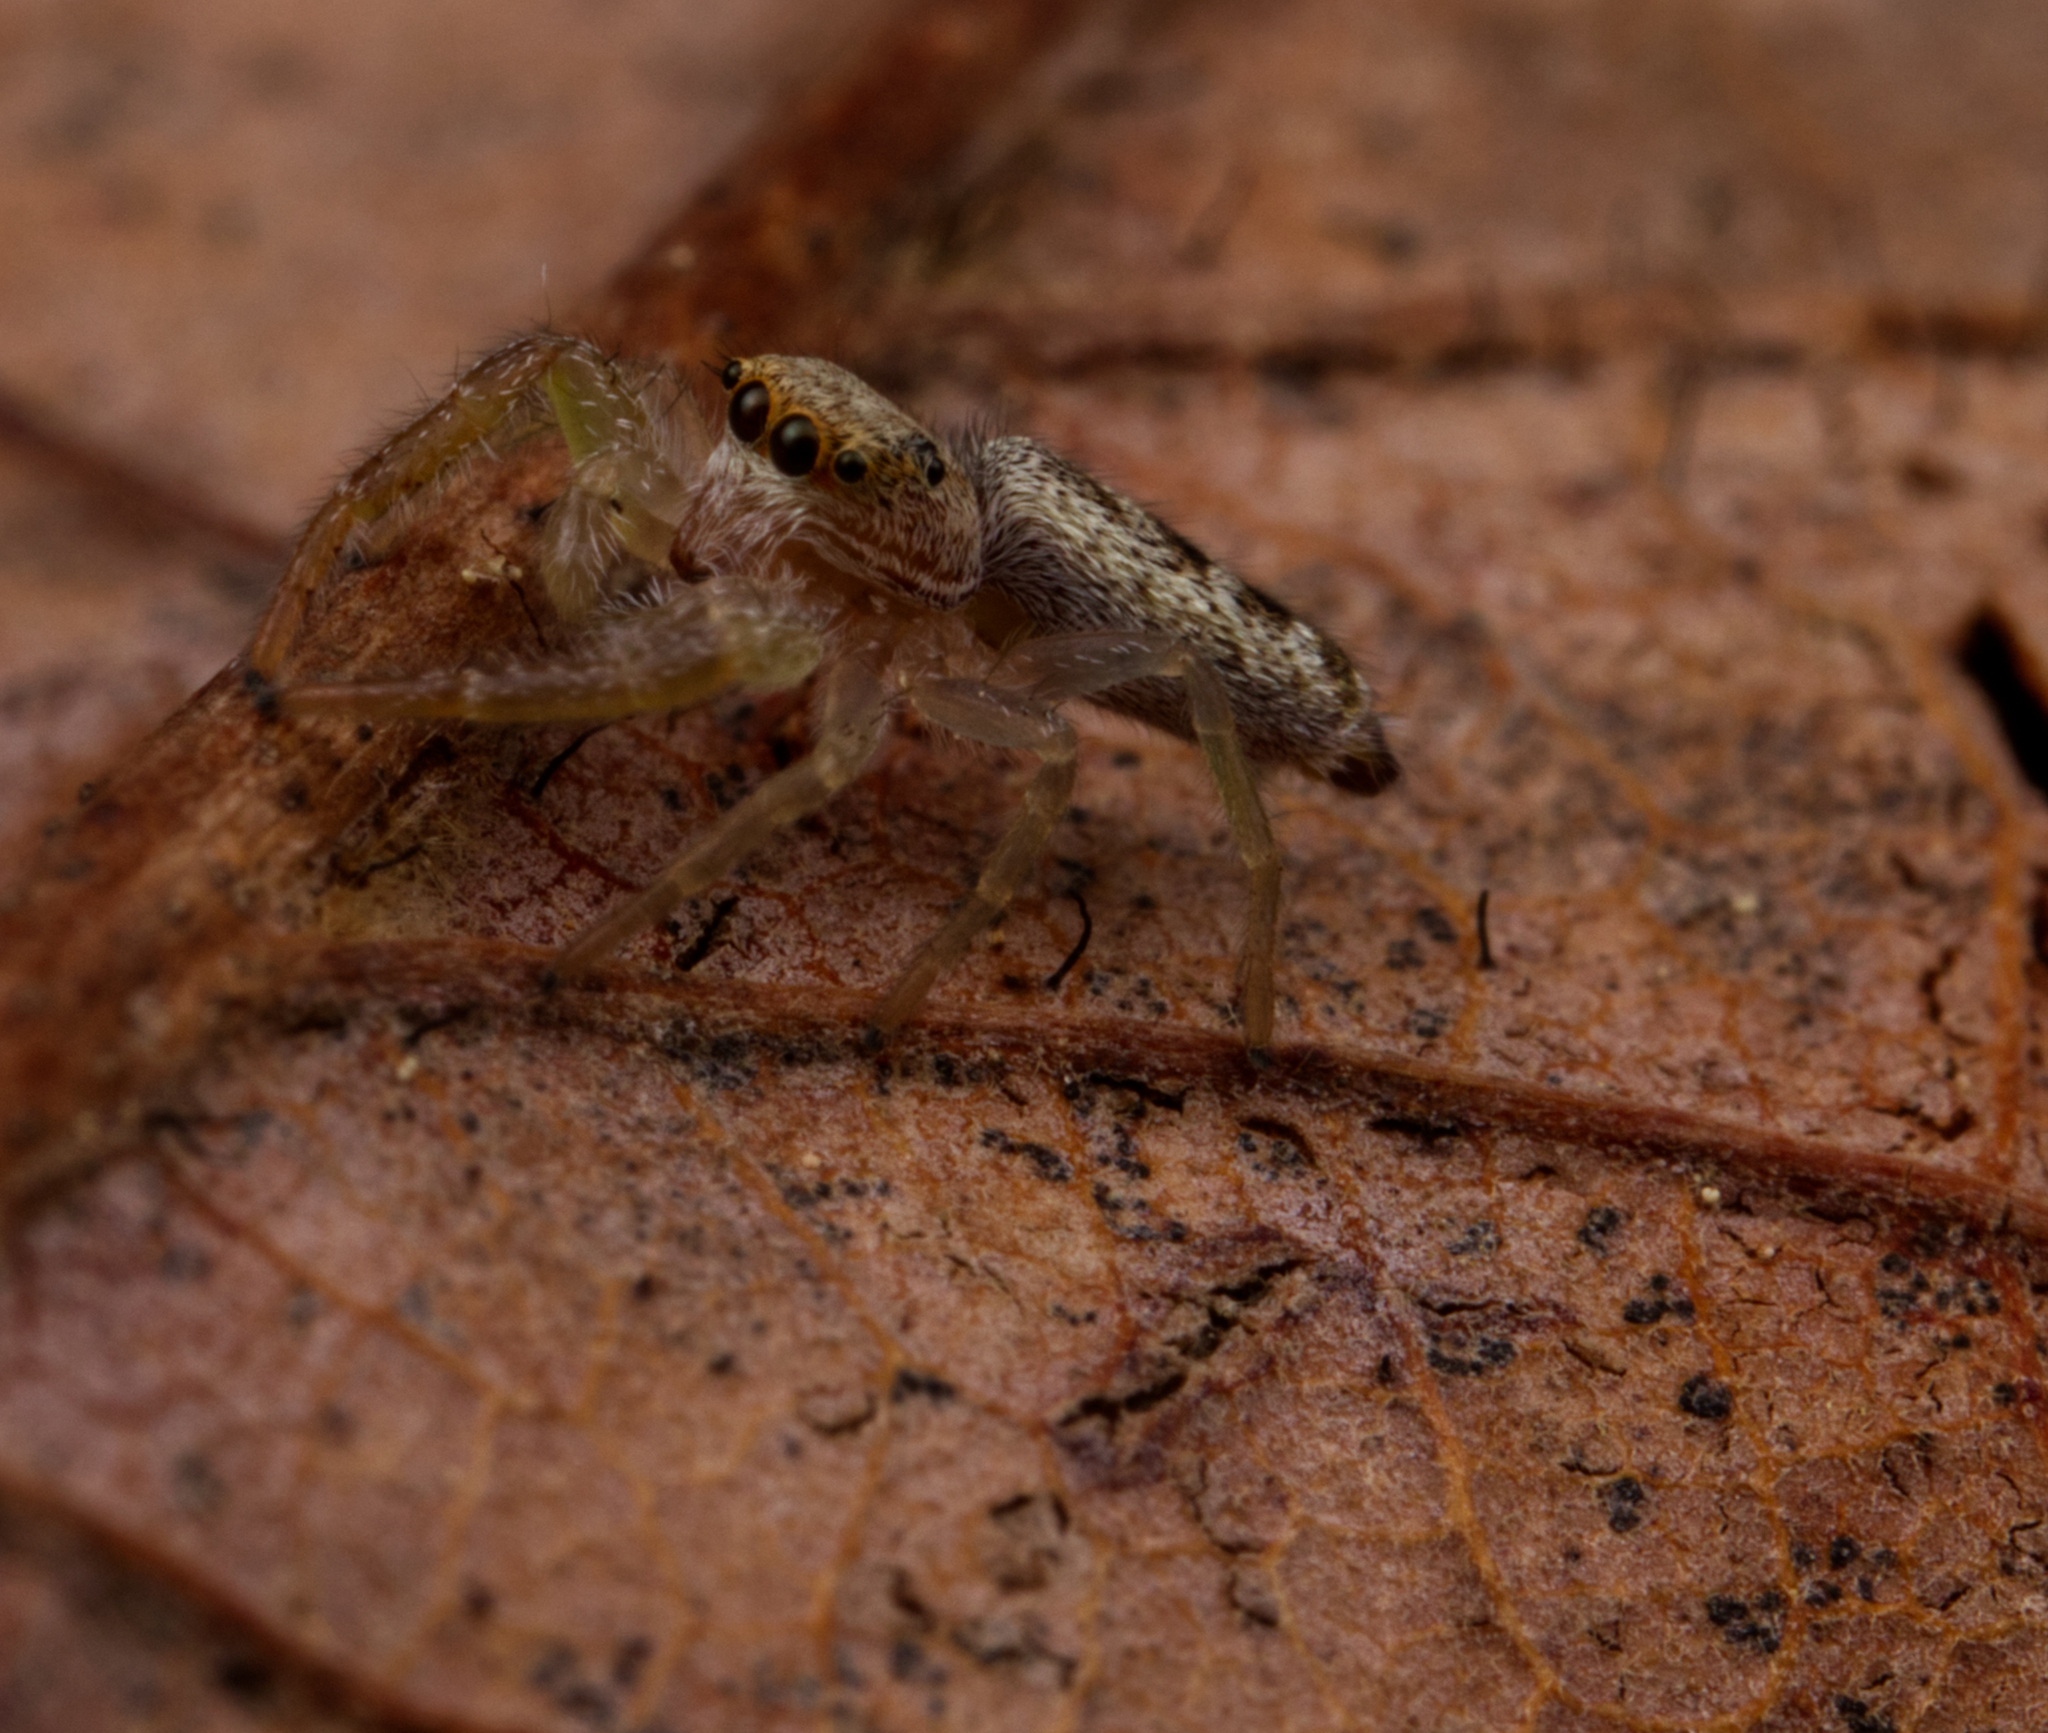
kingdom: Animalia
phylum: Arthropoda
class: Arachnida
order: Araneae
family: Salticidae
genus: Hentzia
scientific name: Hentzia mitrata
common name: White-jawed jumping spider
